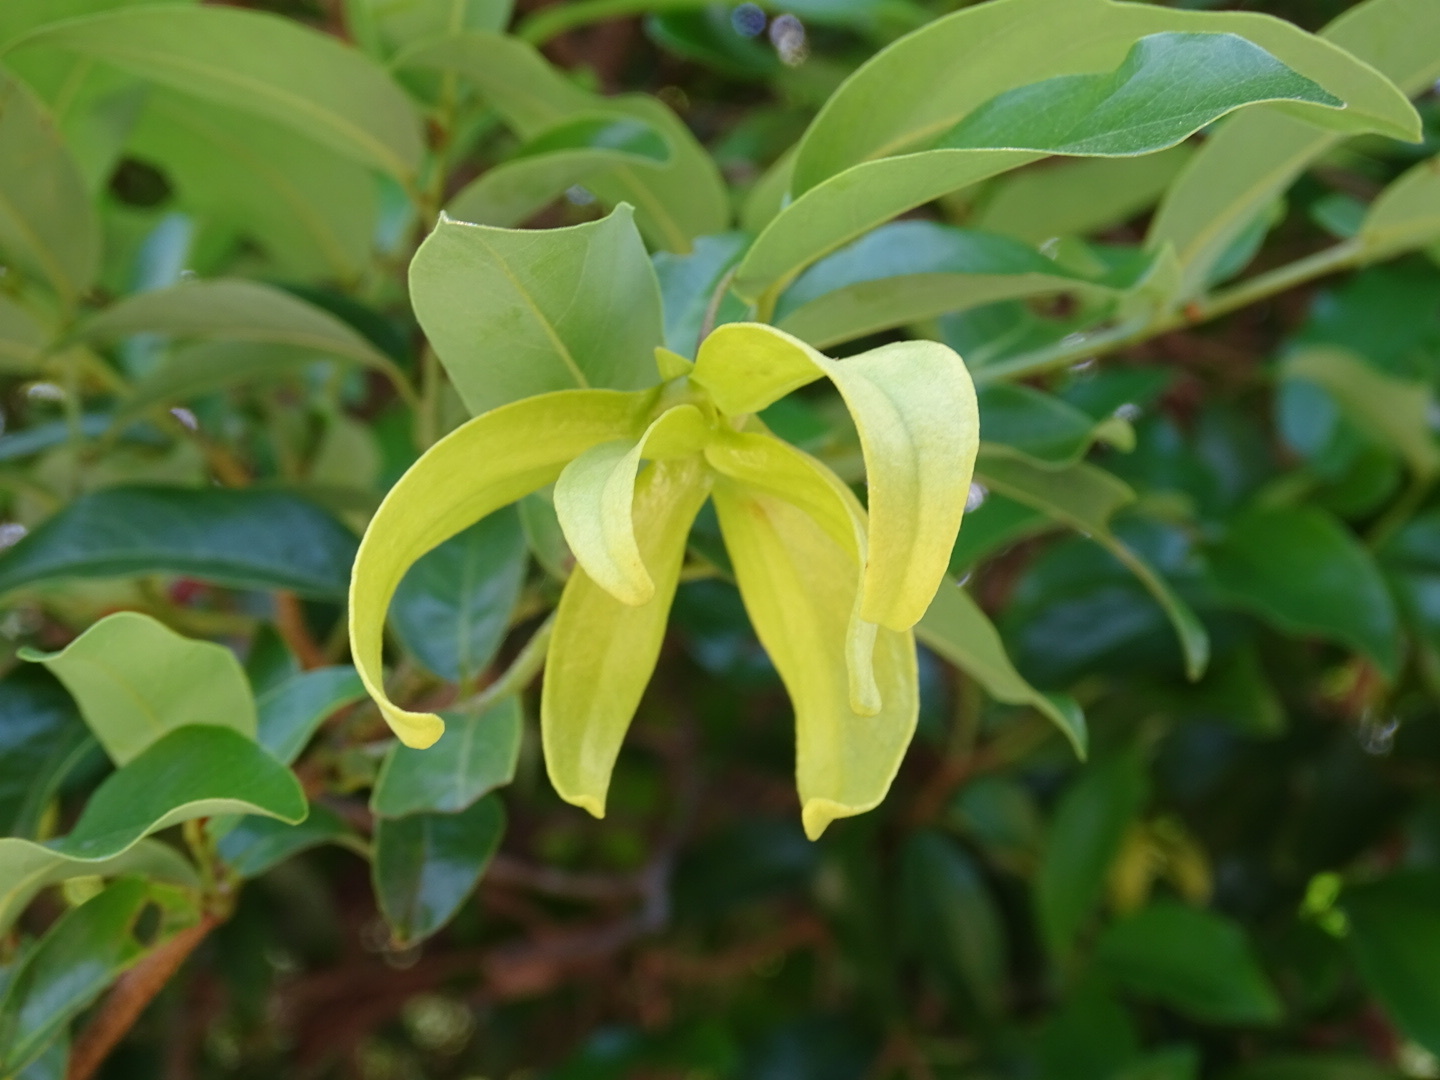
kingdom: Plantae
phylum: Tracheophyta
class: Magnoliopsida
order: Magnoliales
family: Annonaceae
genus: Desmos
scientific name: Desmos chinensis
